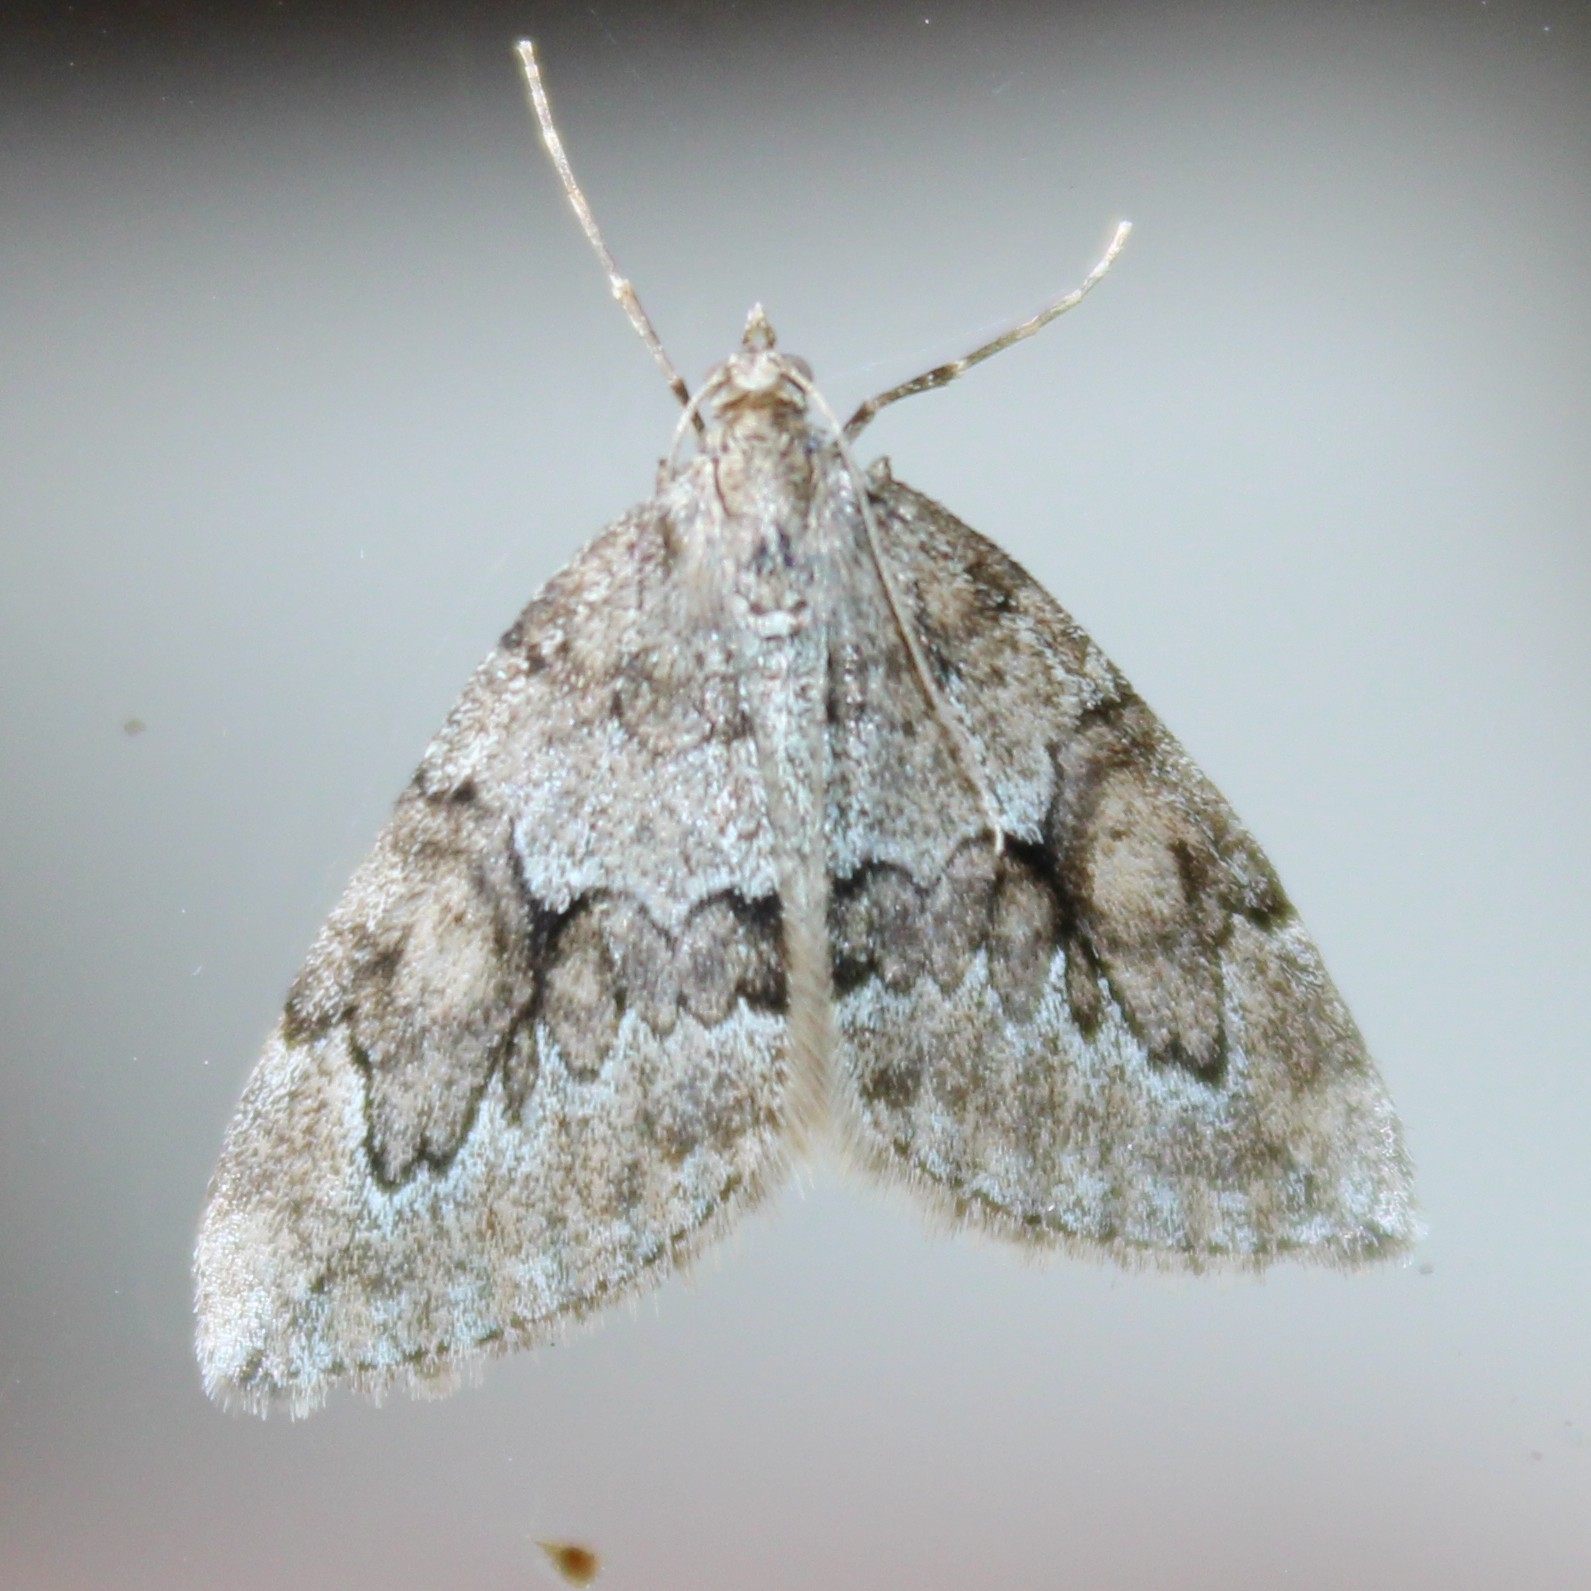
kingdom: Animalia
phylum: Arthropoda
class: Insecta
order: Lepidoptera
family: Geometridae
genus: Thera
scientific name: Thera juniperata
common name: Juniper carpet
